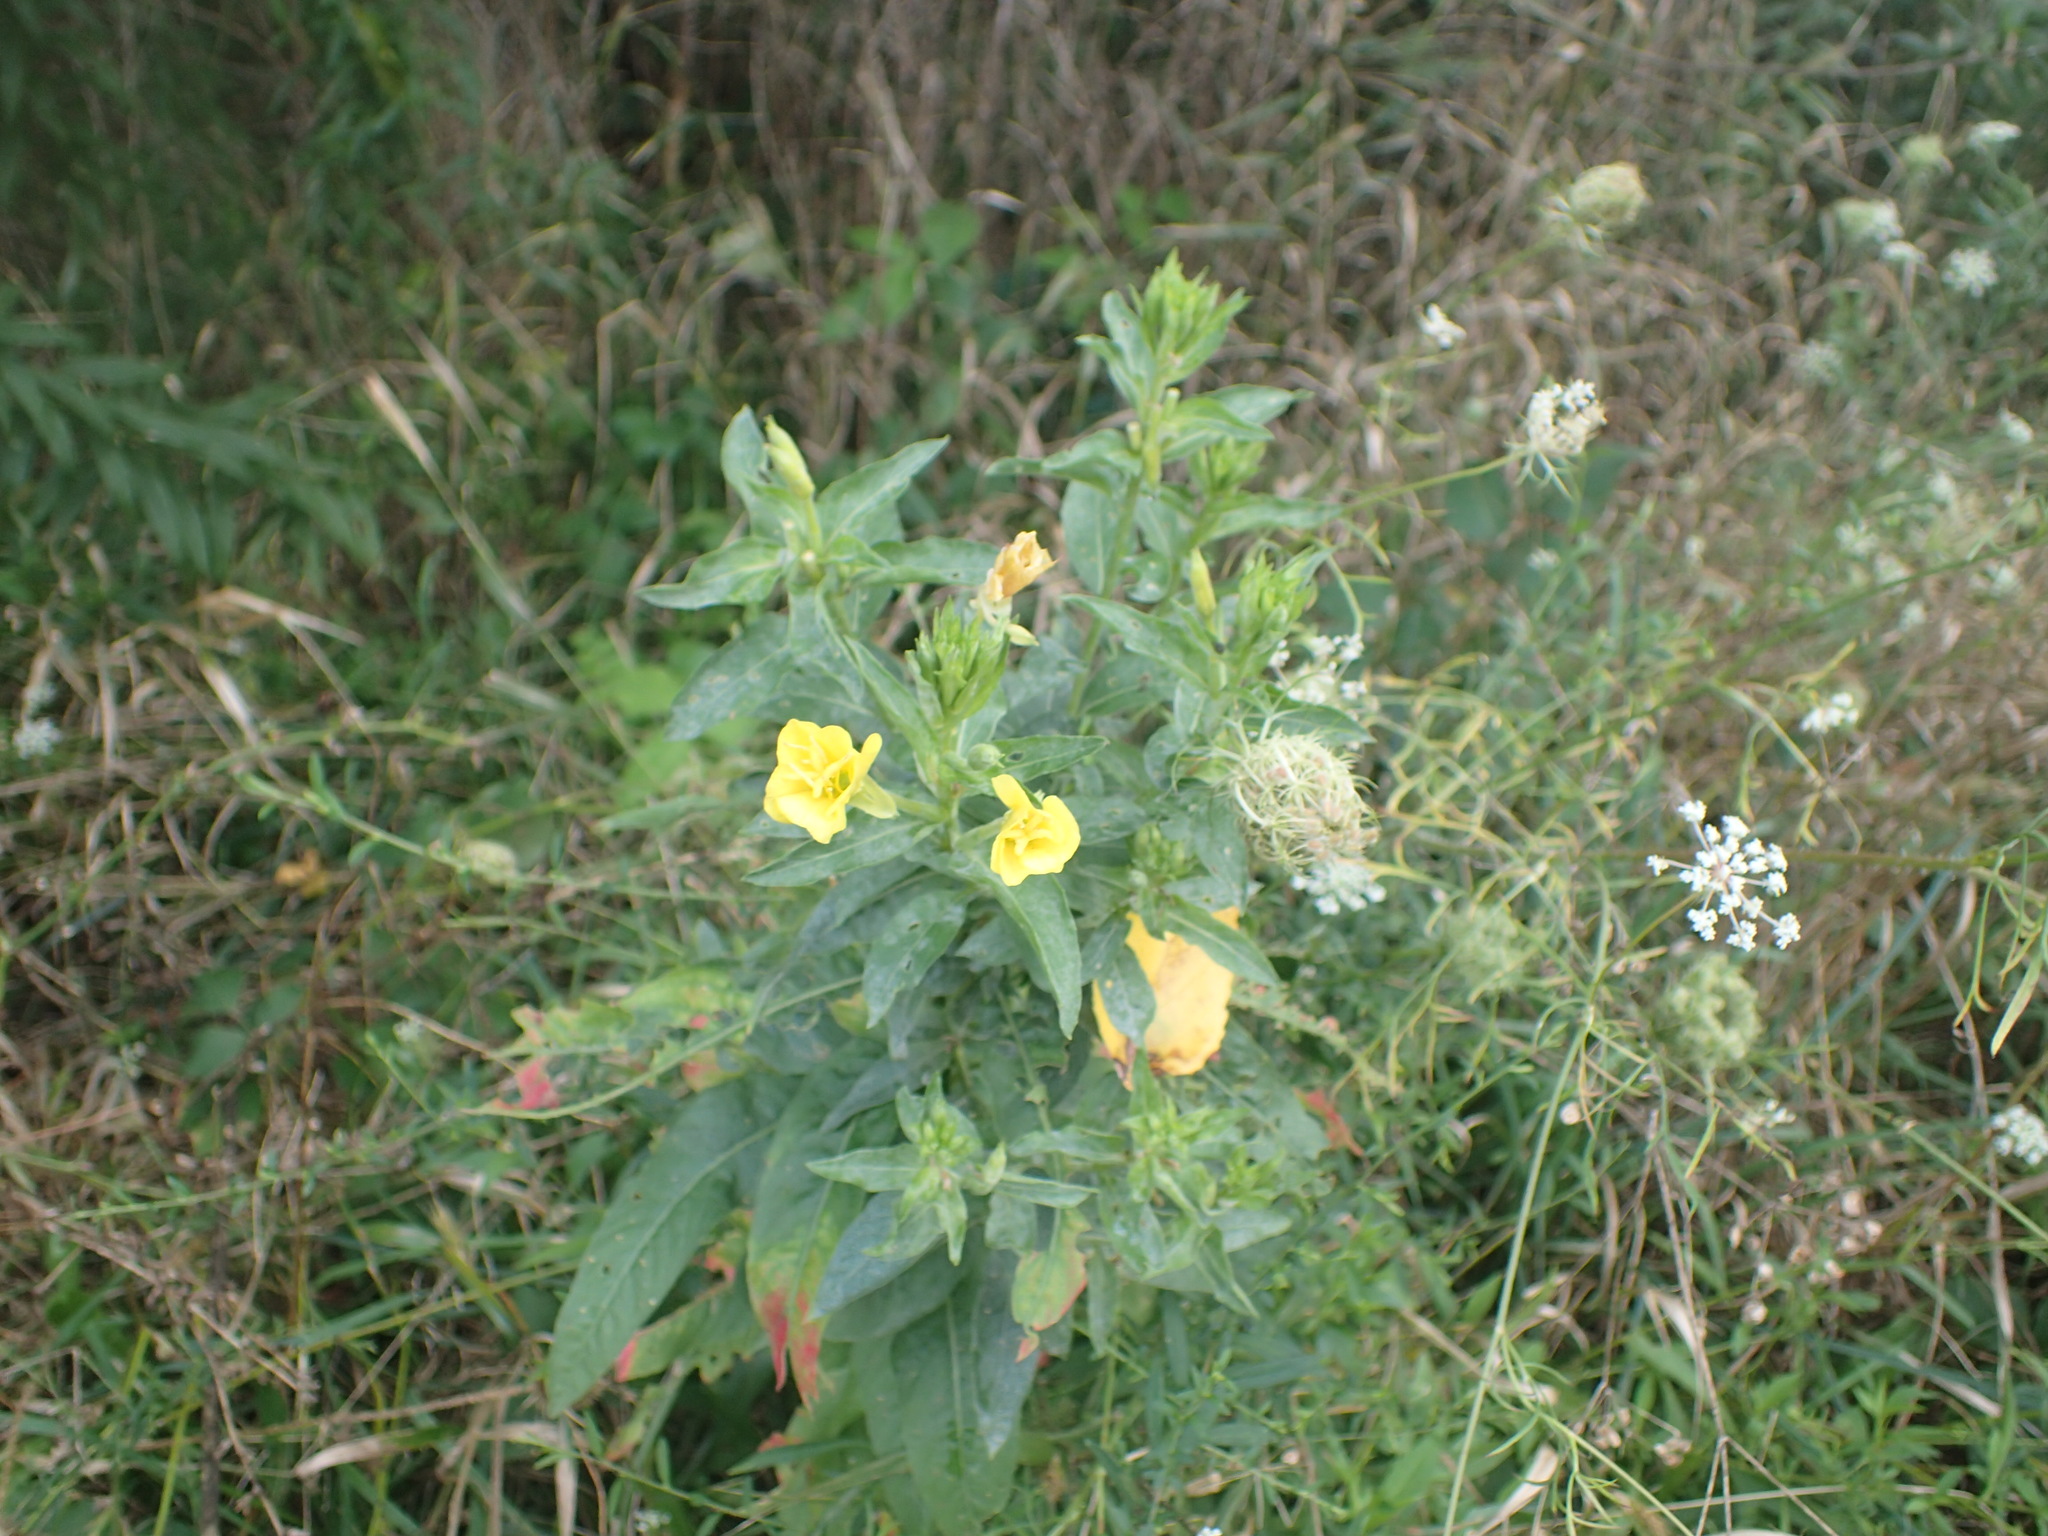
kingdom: Plantae
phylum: Tracheophyta
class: Magnoliopsida
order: Myrtales
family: Onagraceae
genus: Oenothera
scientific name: Oenothera biennis
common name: Common evening-primrose
